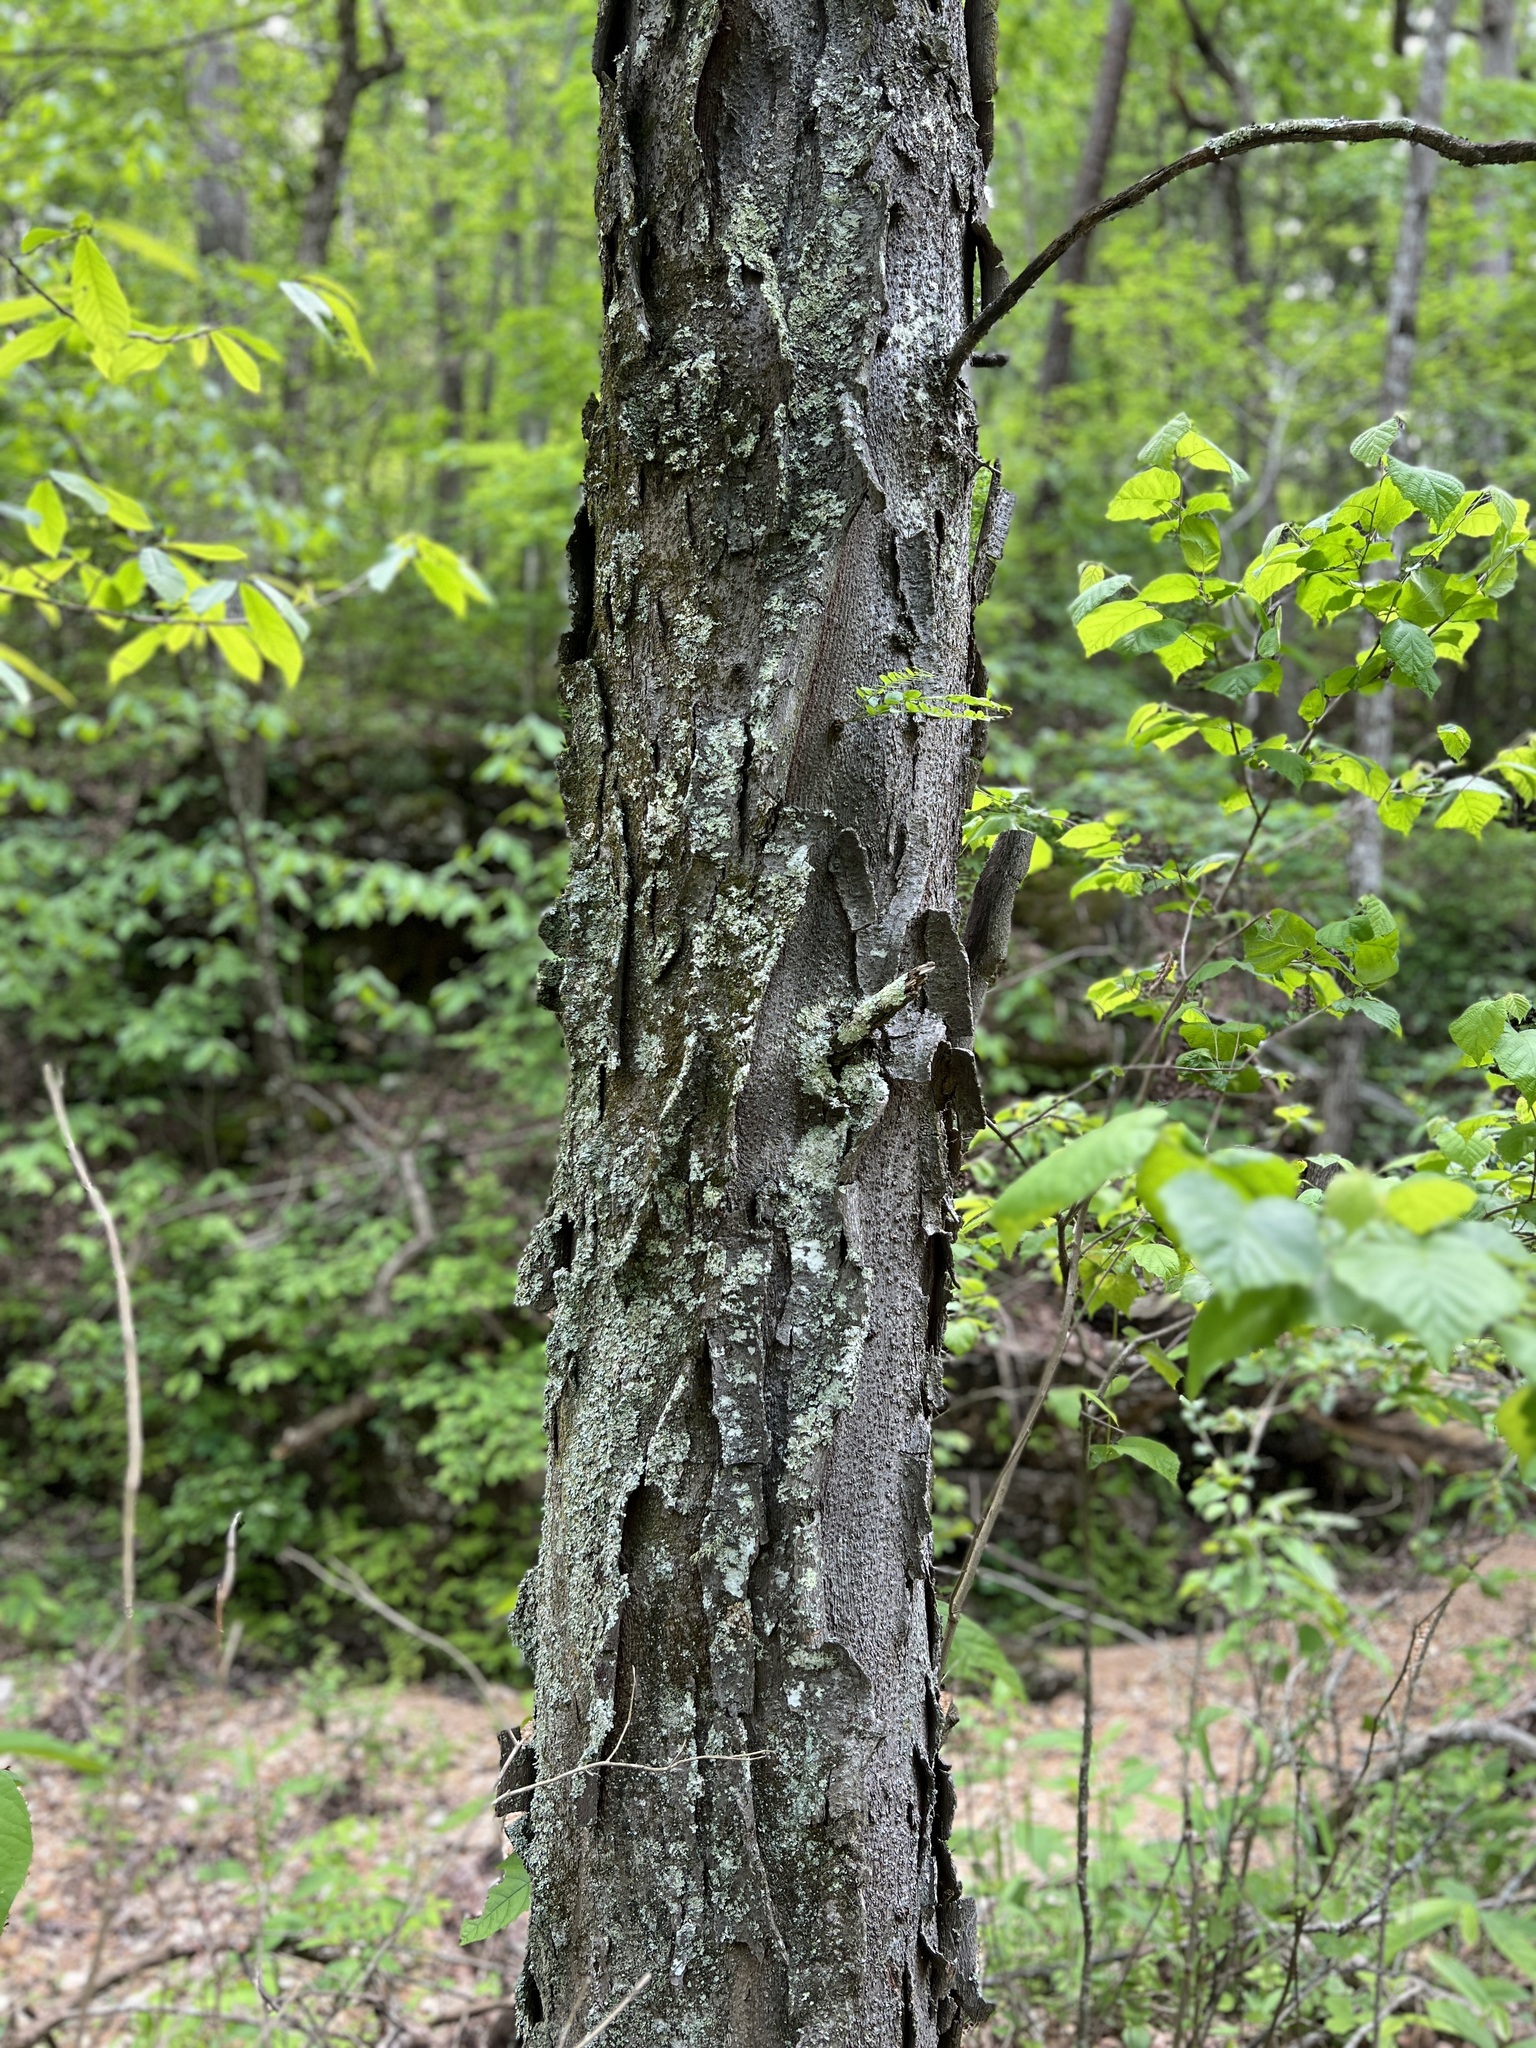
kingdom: Plantae
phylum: Tracheophyta
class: Magnoliopsida
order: Fabales
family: Fabaceae
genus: Gleditsia
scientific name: Gleditsia triacanthos
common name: Common honeylocust
